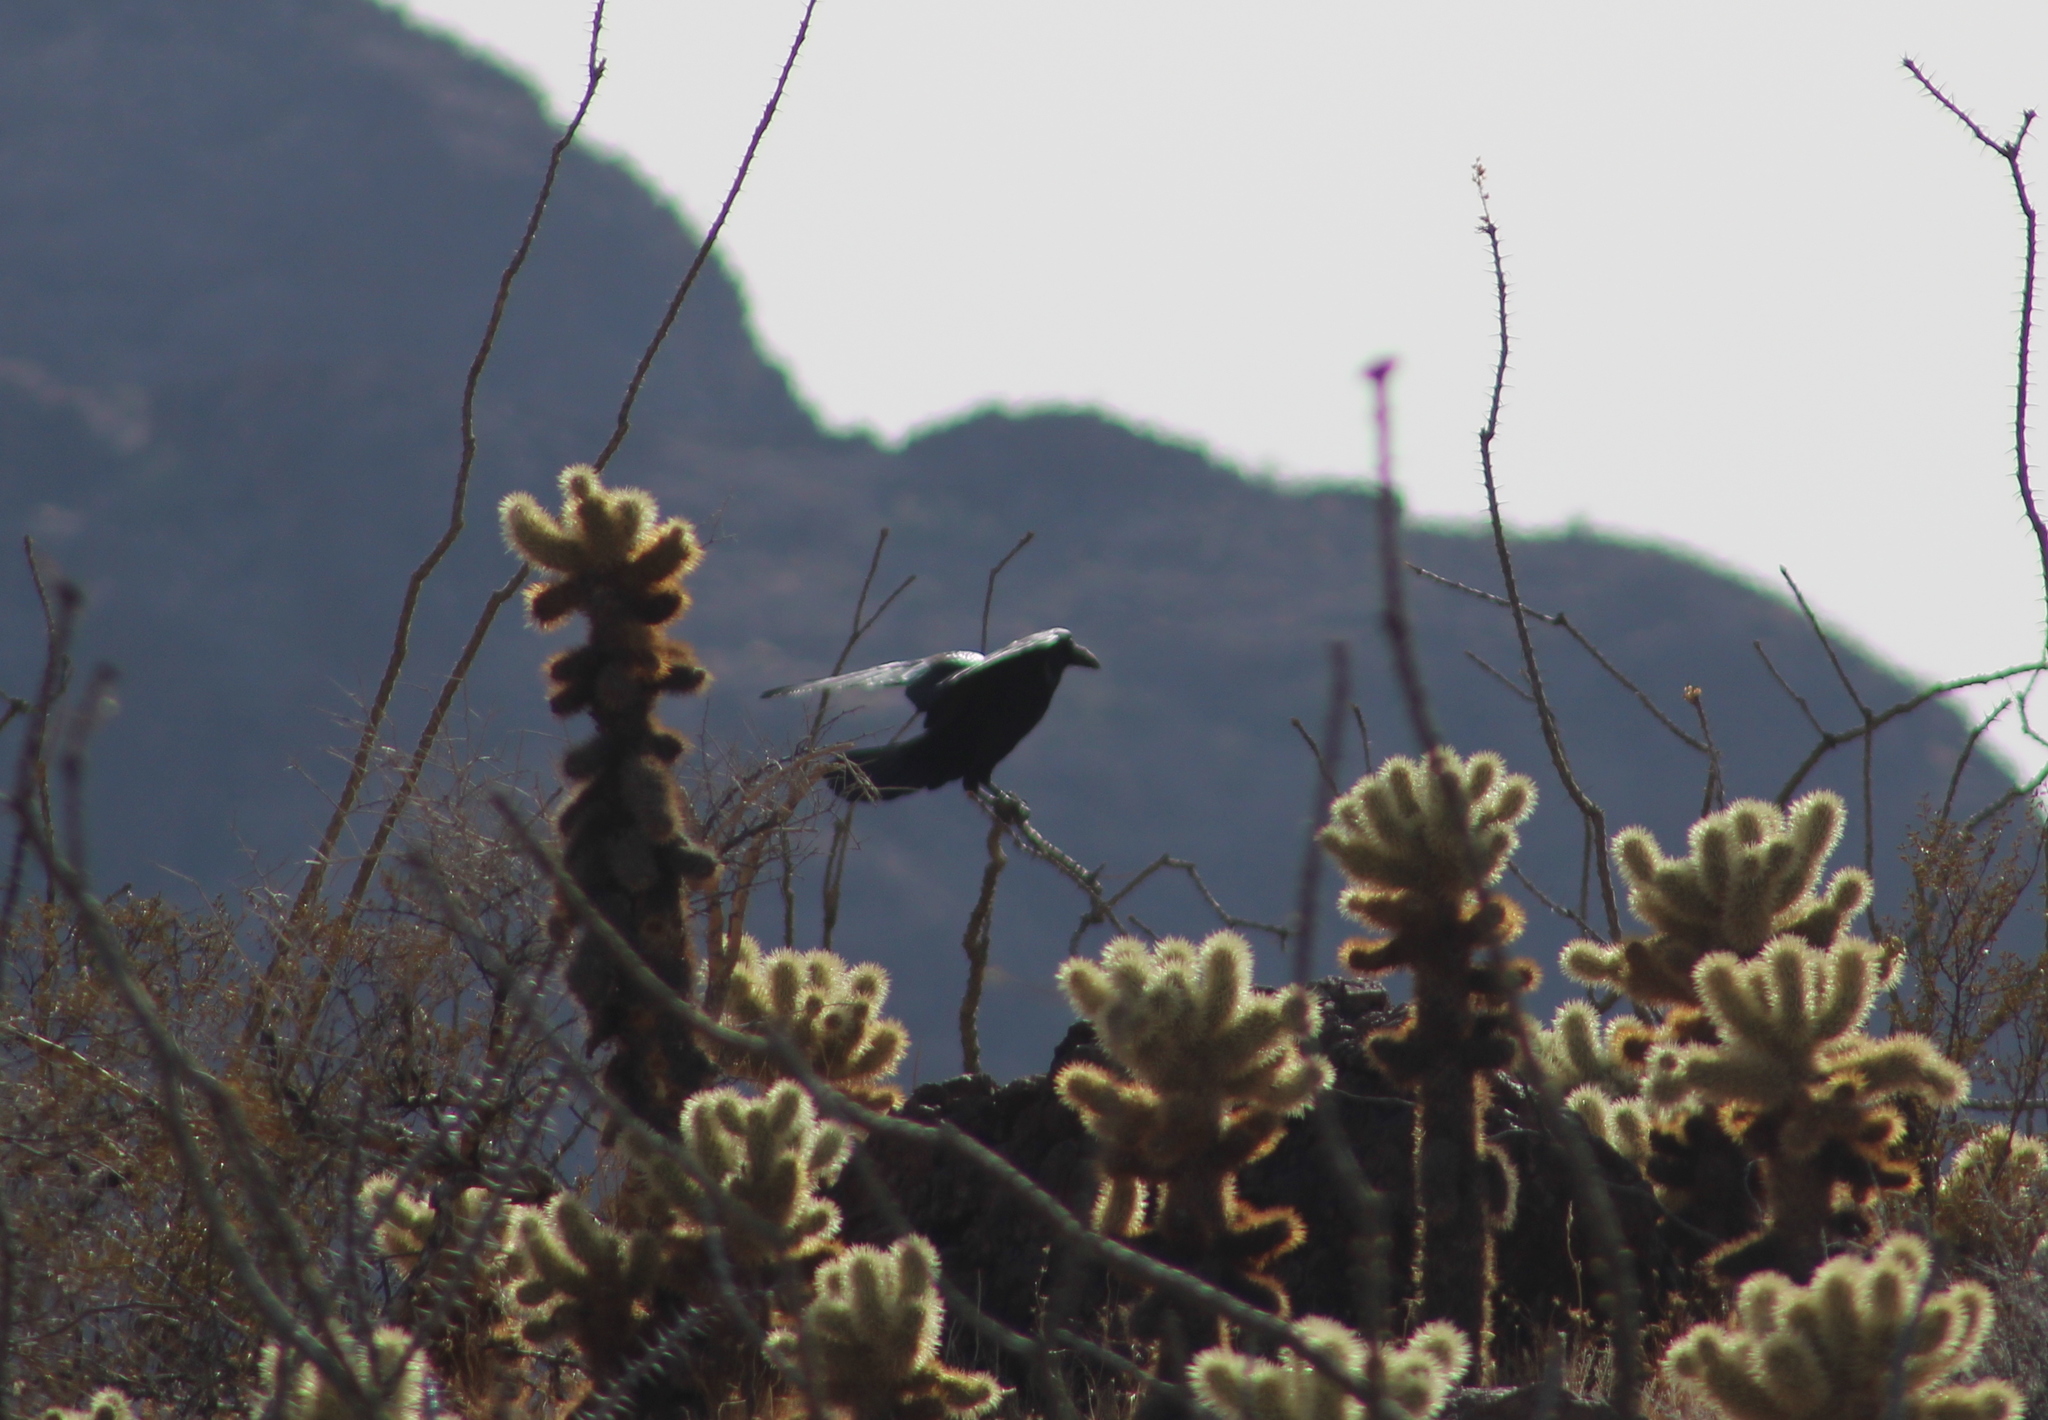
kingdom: Animalia
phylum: Chordata
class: Aves
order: Passeriformes
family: Corvidae
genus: Corvus
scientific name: Corvus corax
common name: Common raven
